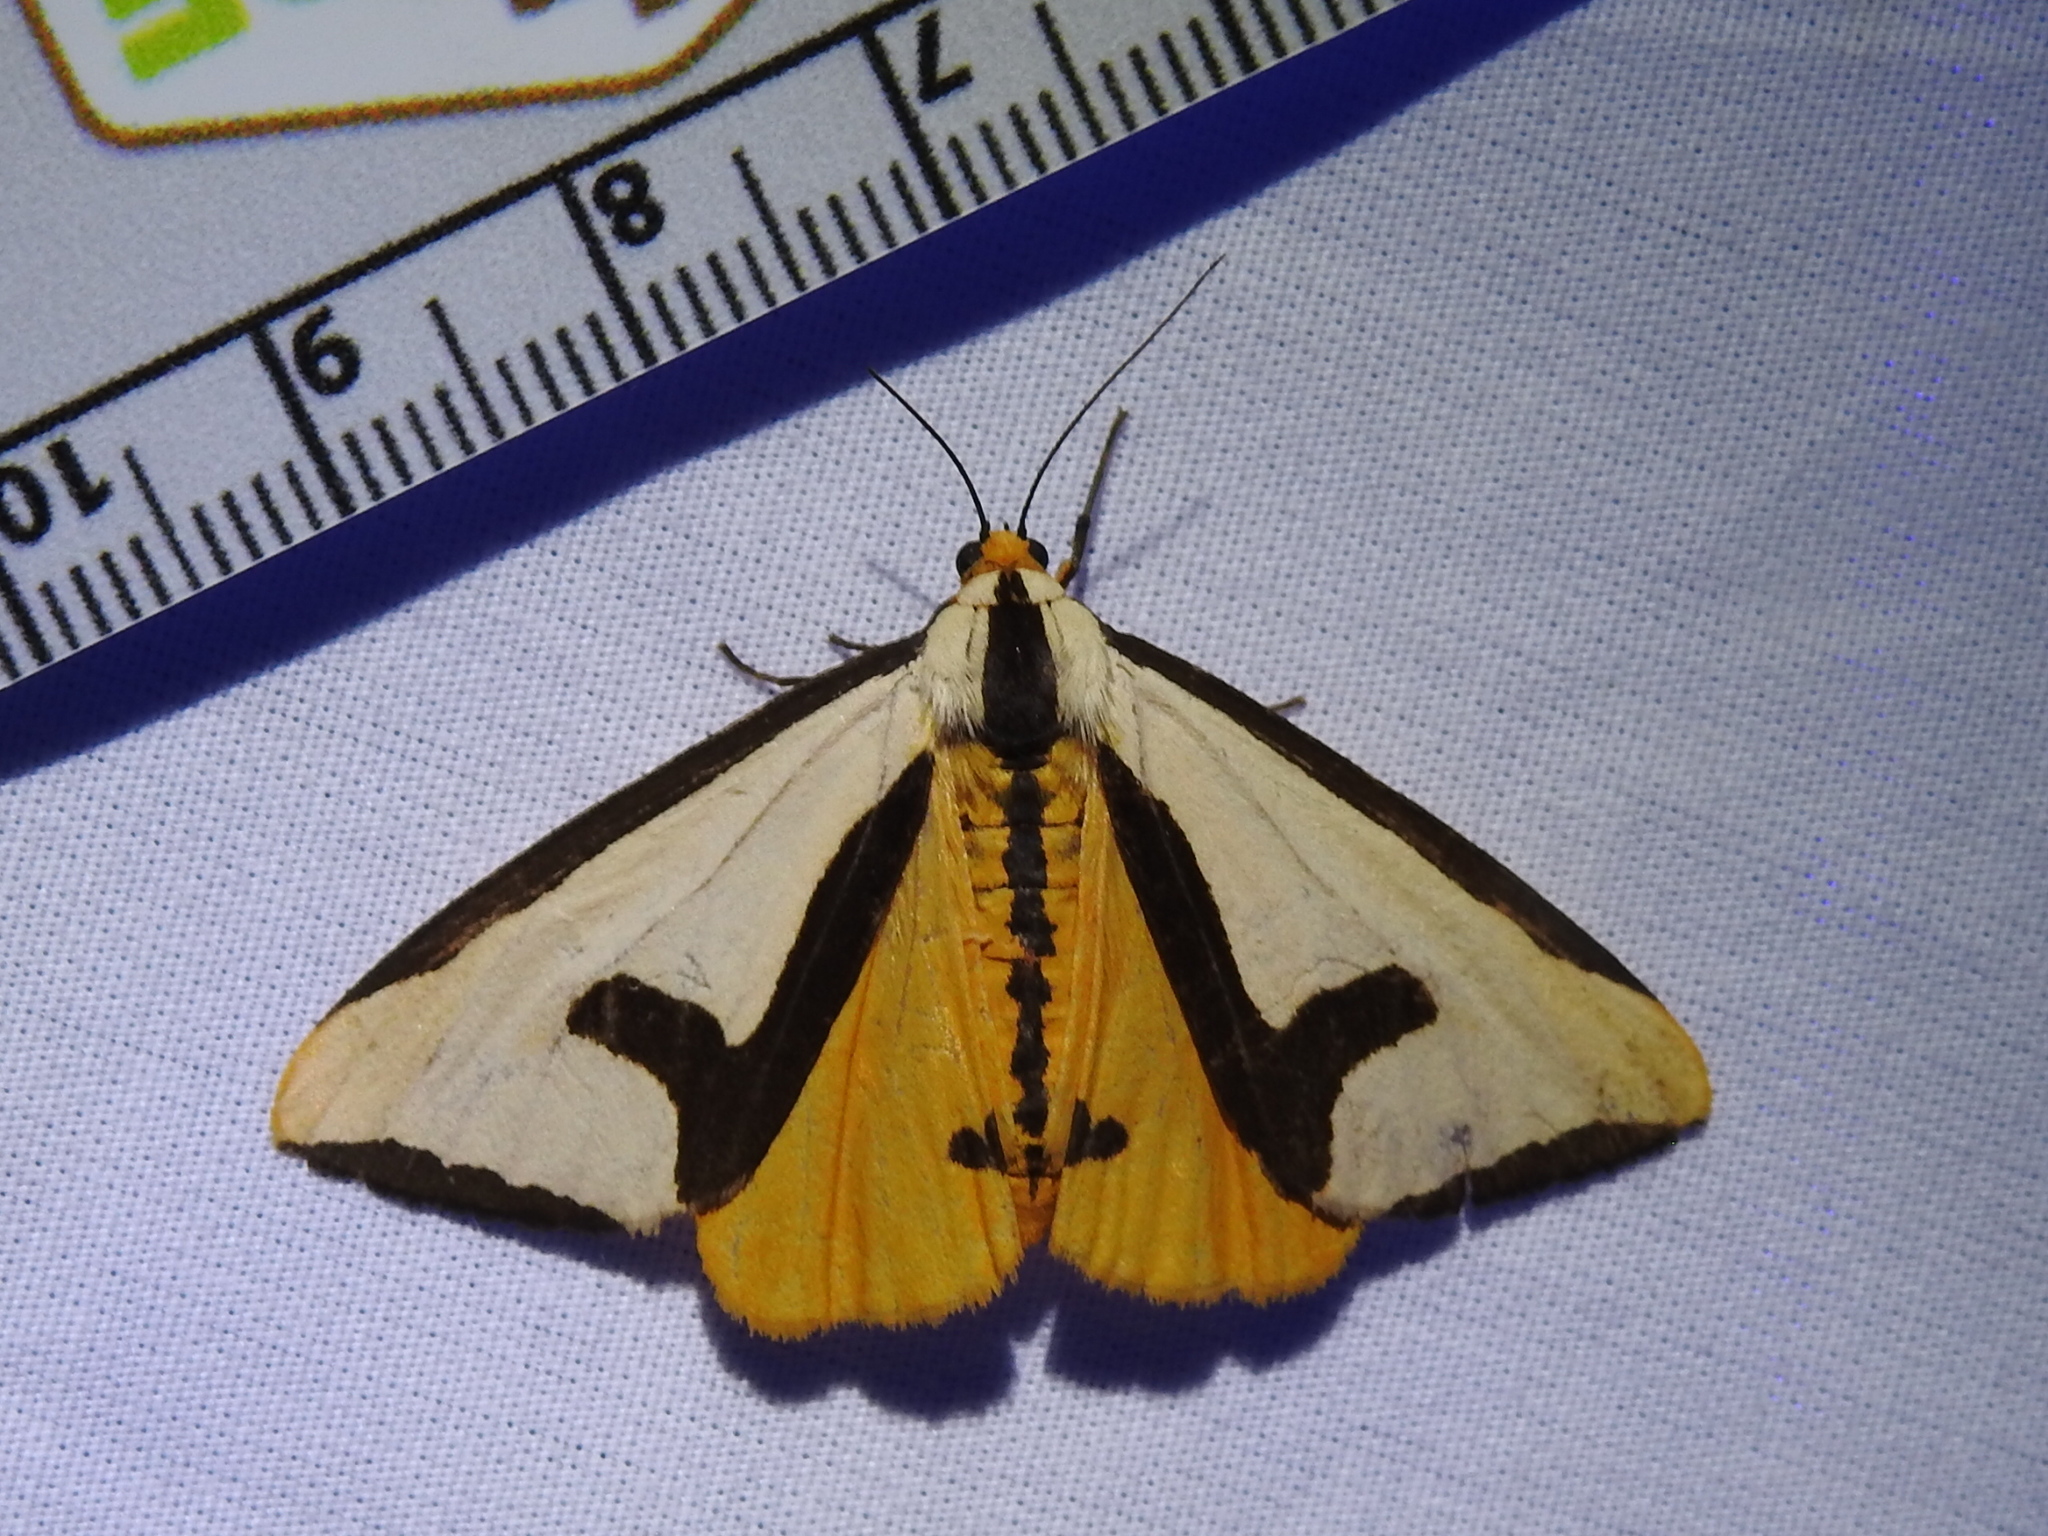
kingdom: Animalia
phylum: Arthropoda
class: Insecta
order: Lepidoptera
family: Erebidae
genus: Haploa
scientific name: Haploa clymene
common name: Clymene moth
